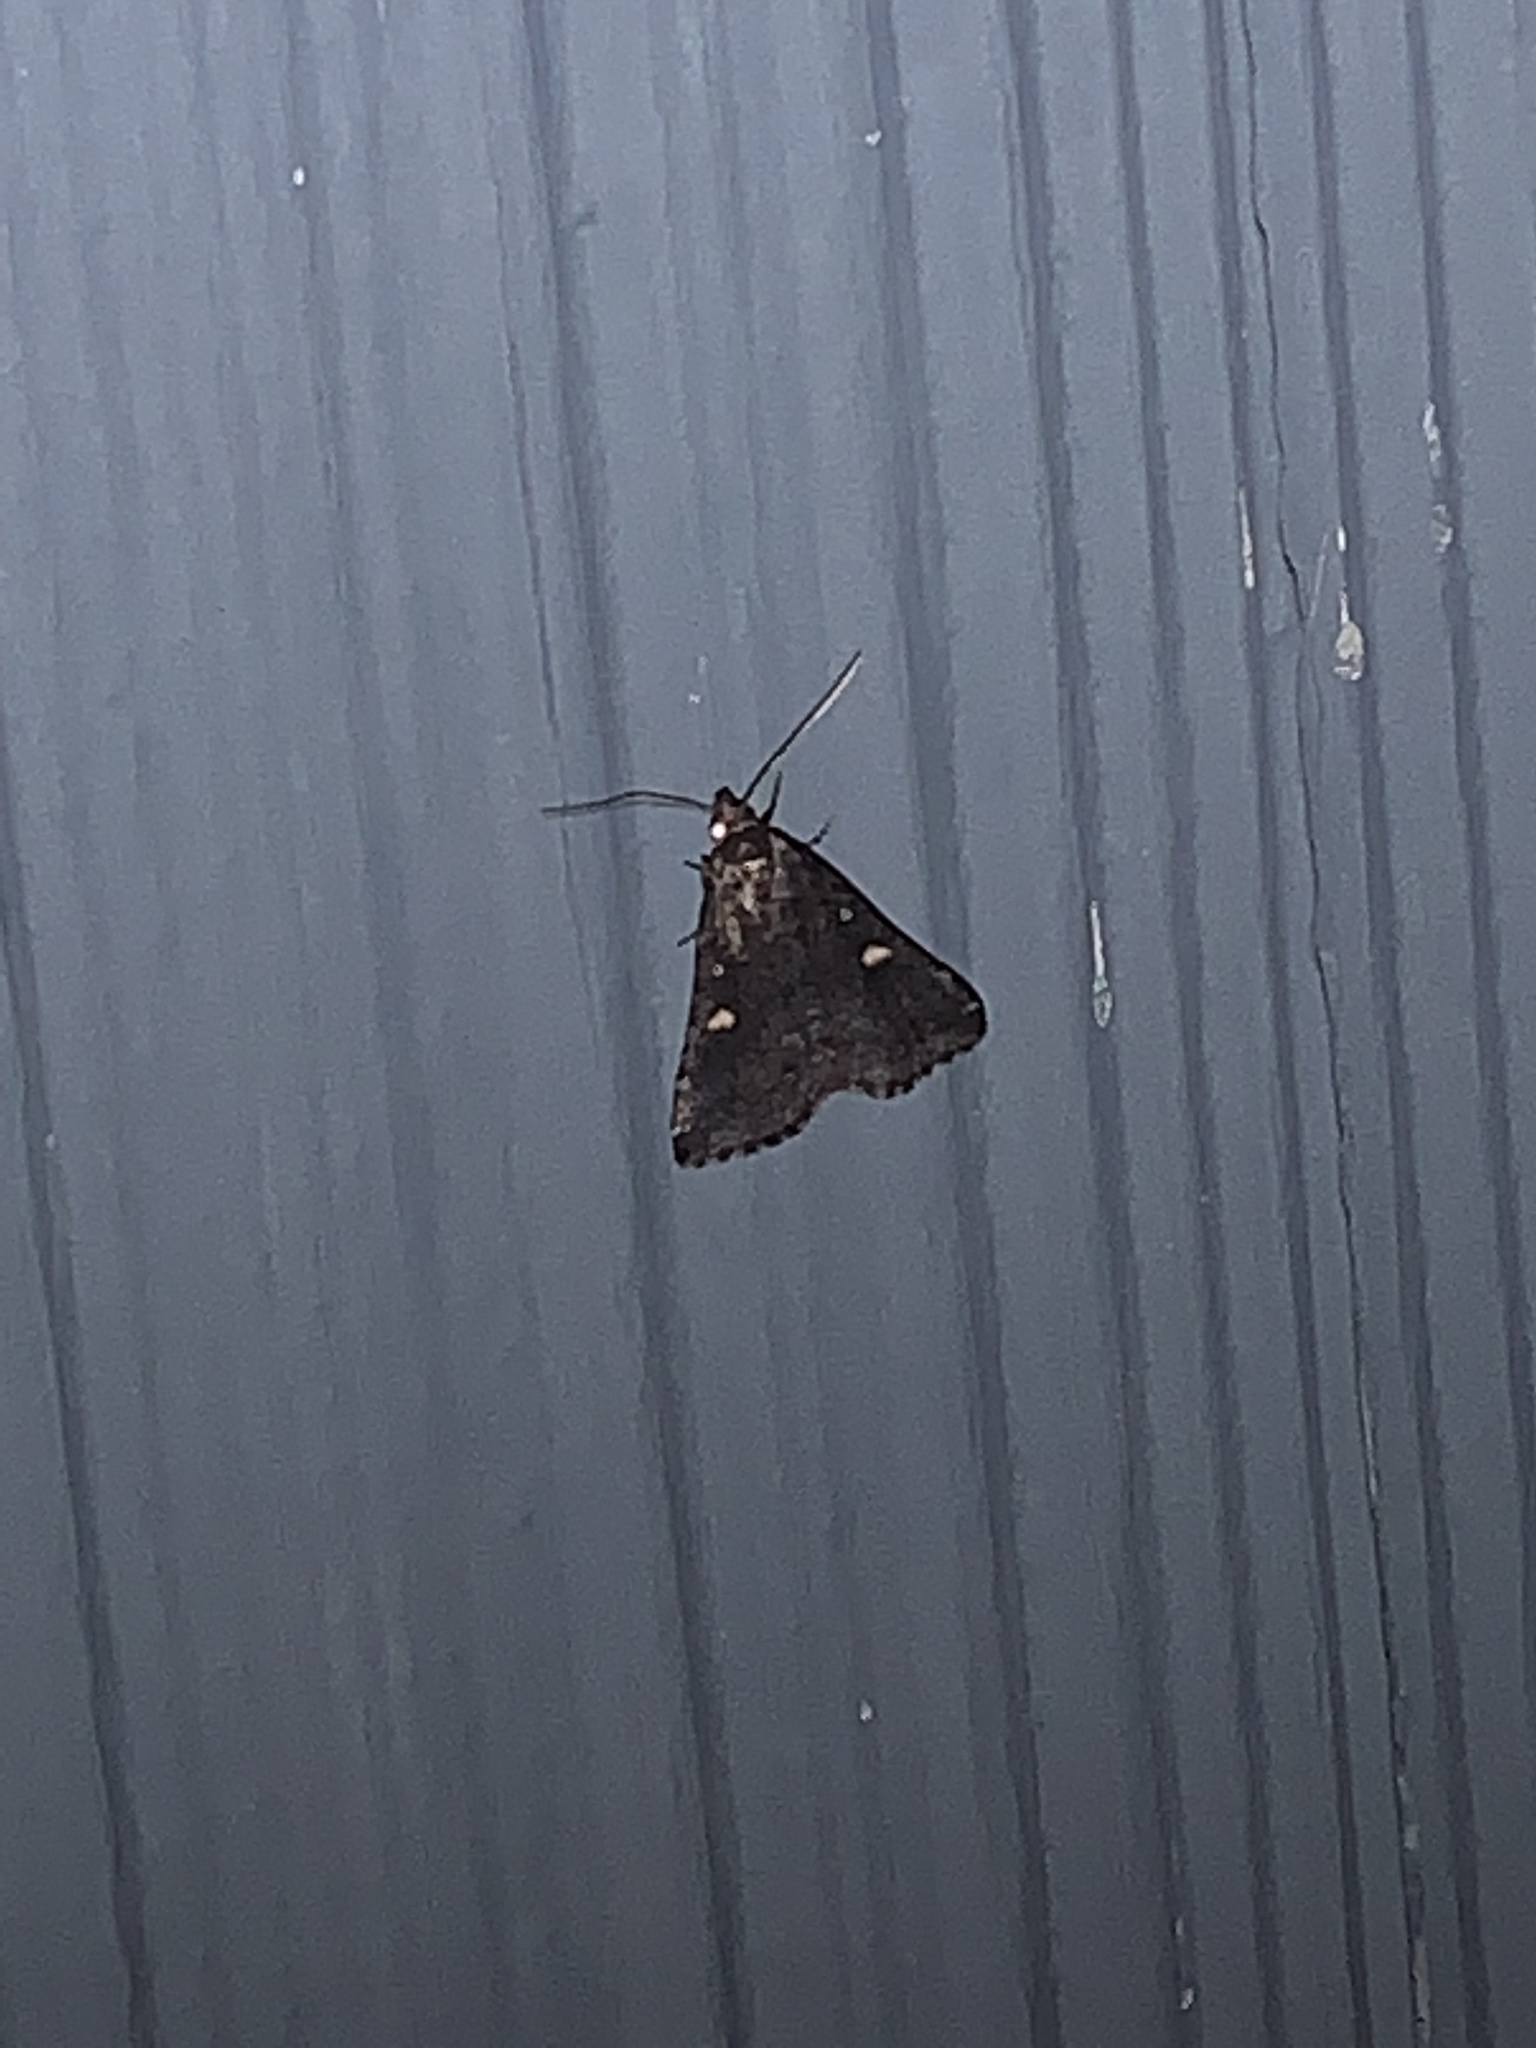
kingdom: Animalia
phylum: Arthropoda
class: Insecta
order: Lepidoptera
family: Erebidae
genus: Tetanolita
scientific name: Tetanolita mynesalis
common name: Smoky tetanolita moth
